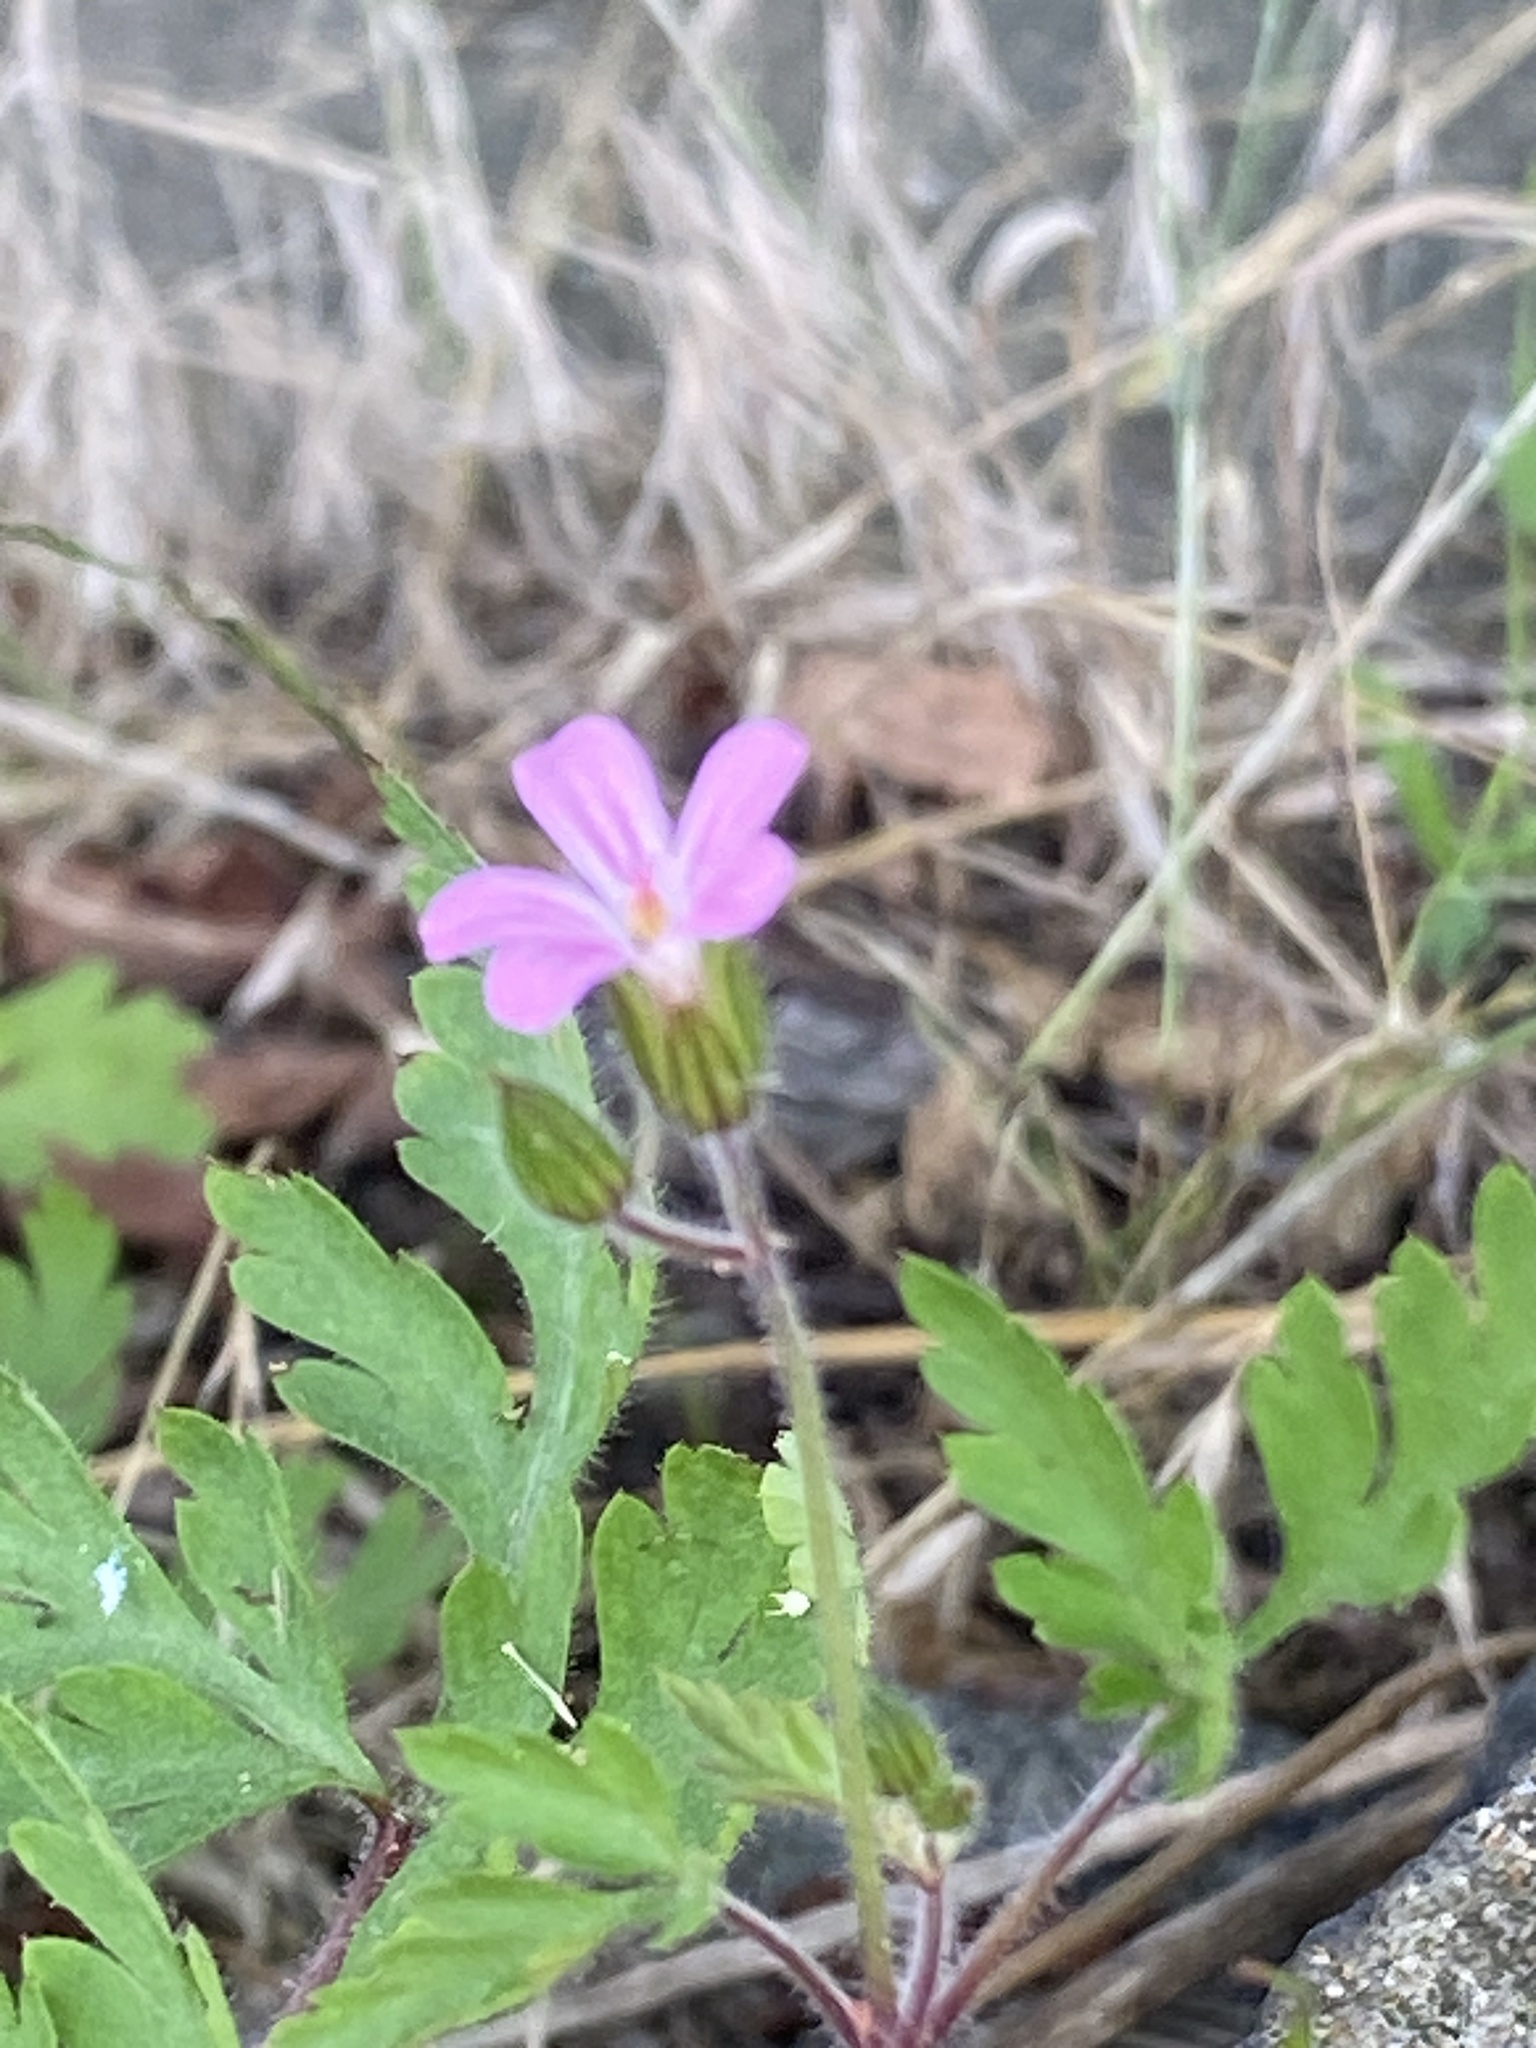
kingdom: Plantae
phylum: Tracheophyta
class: Magnoliopsida
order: Geraniales
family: Geraniaceae
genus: Geranium
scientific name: Geranium robertianum
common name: Herb-robert
